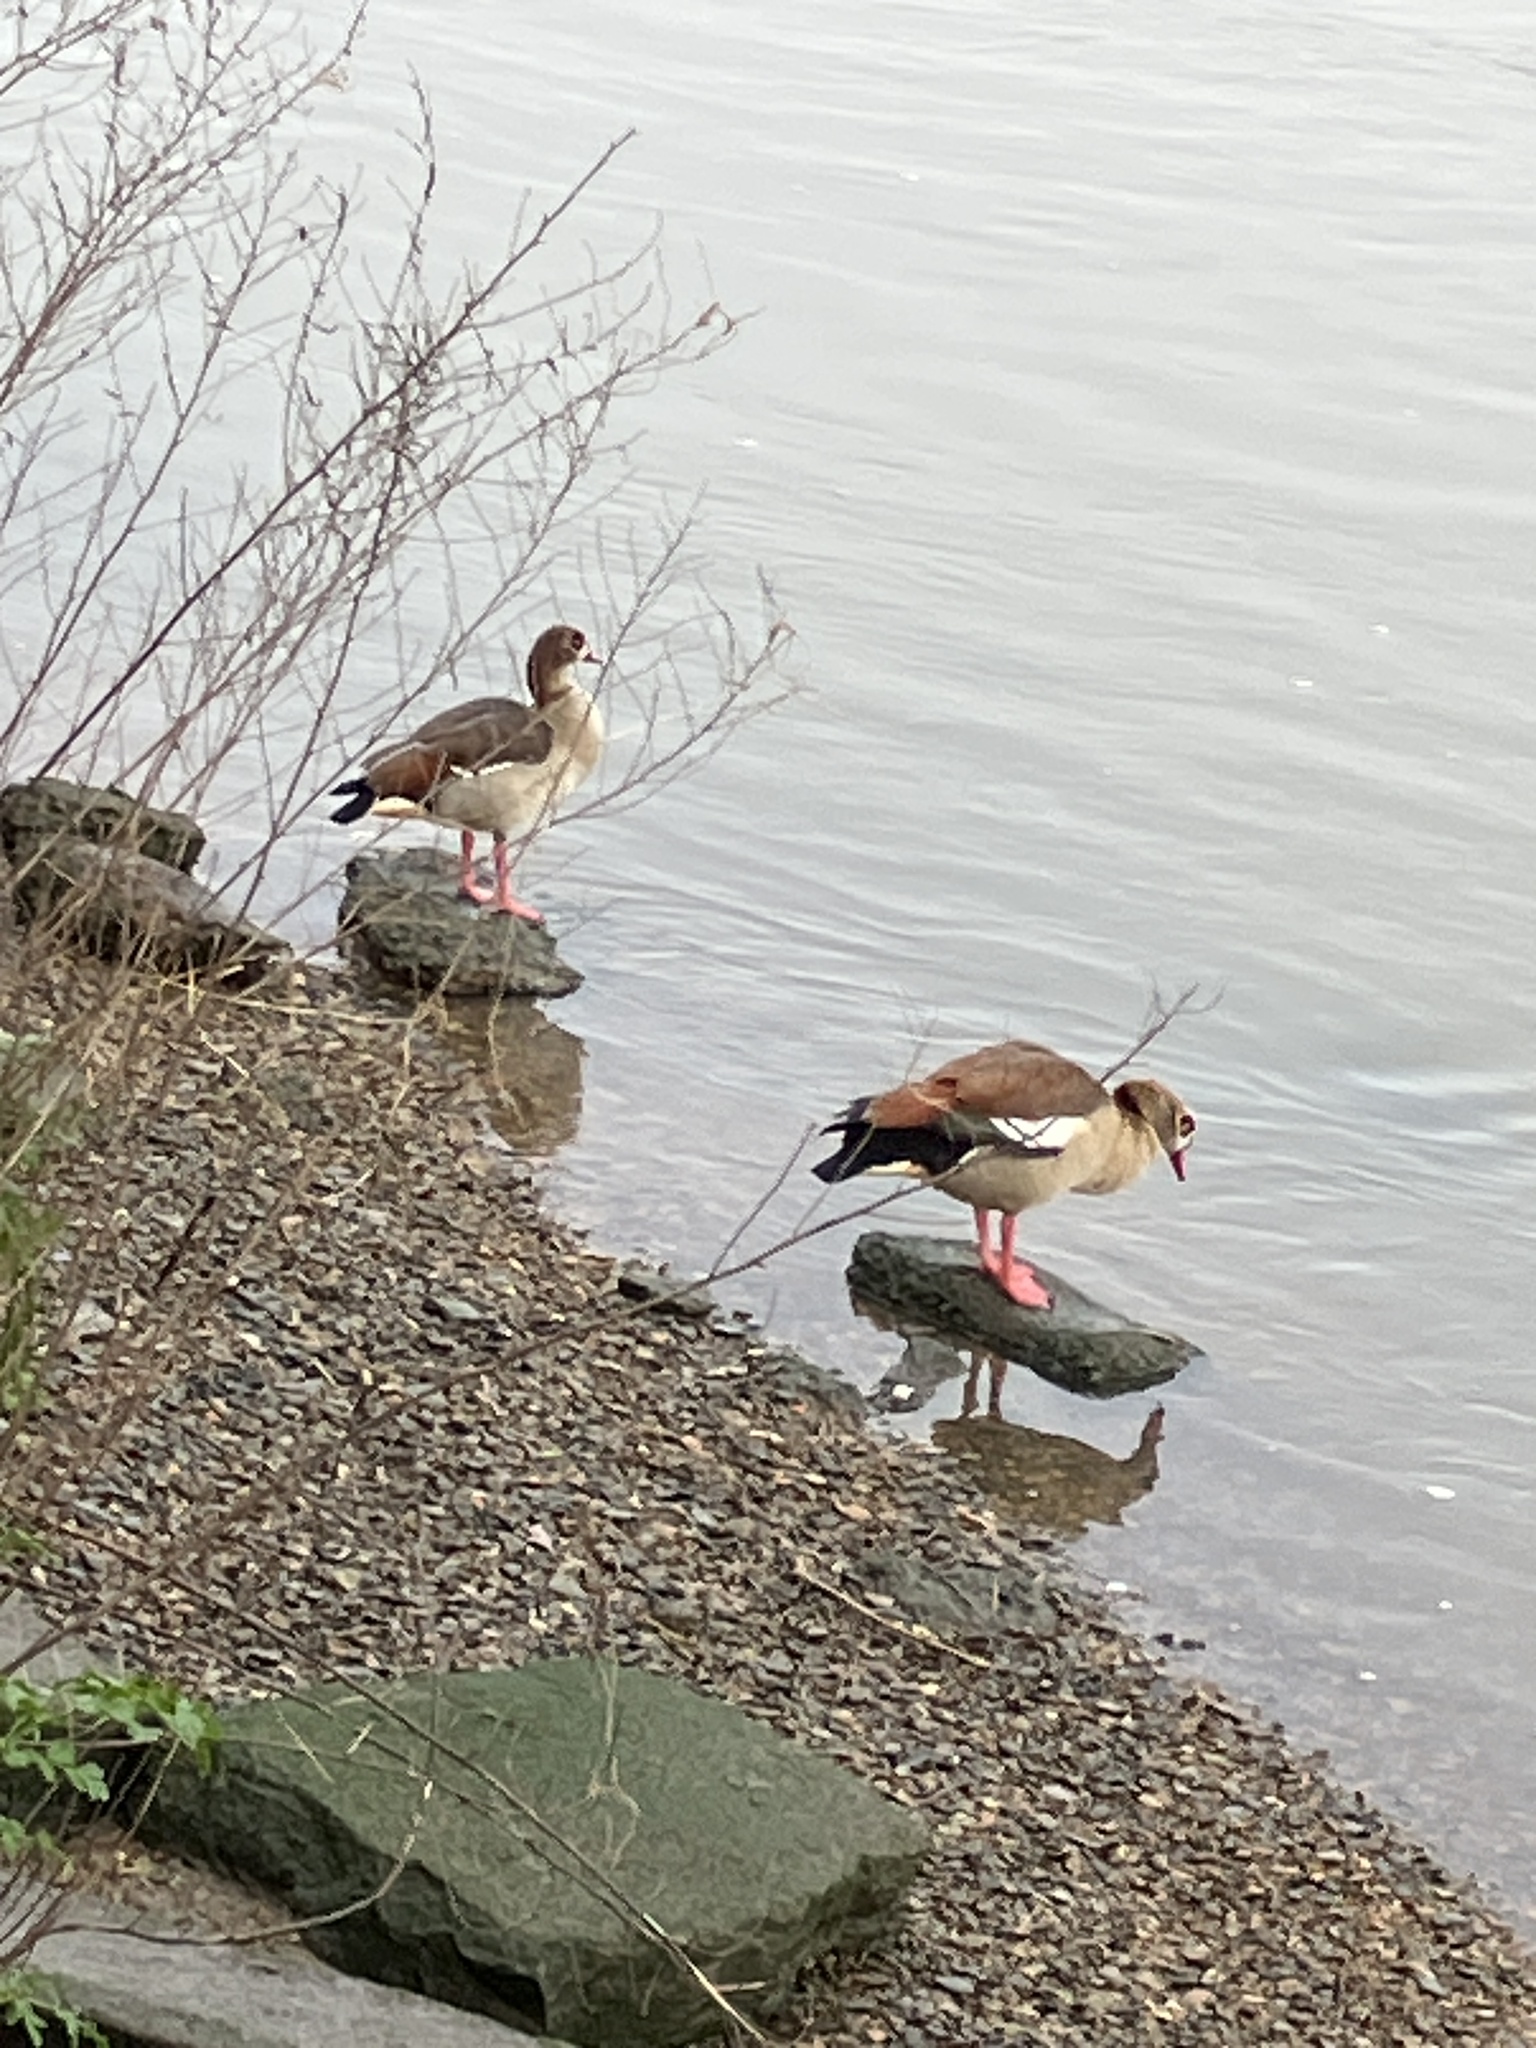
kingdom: Animalia
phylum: Chordata
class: Aves
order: Anseriformes
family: Anatidae
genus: Alopochen
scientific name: Alopochen aegyptiaca
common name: Egyptian goose
